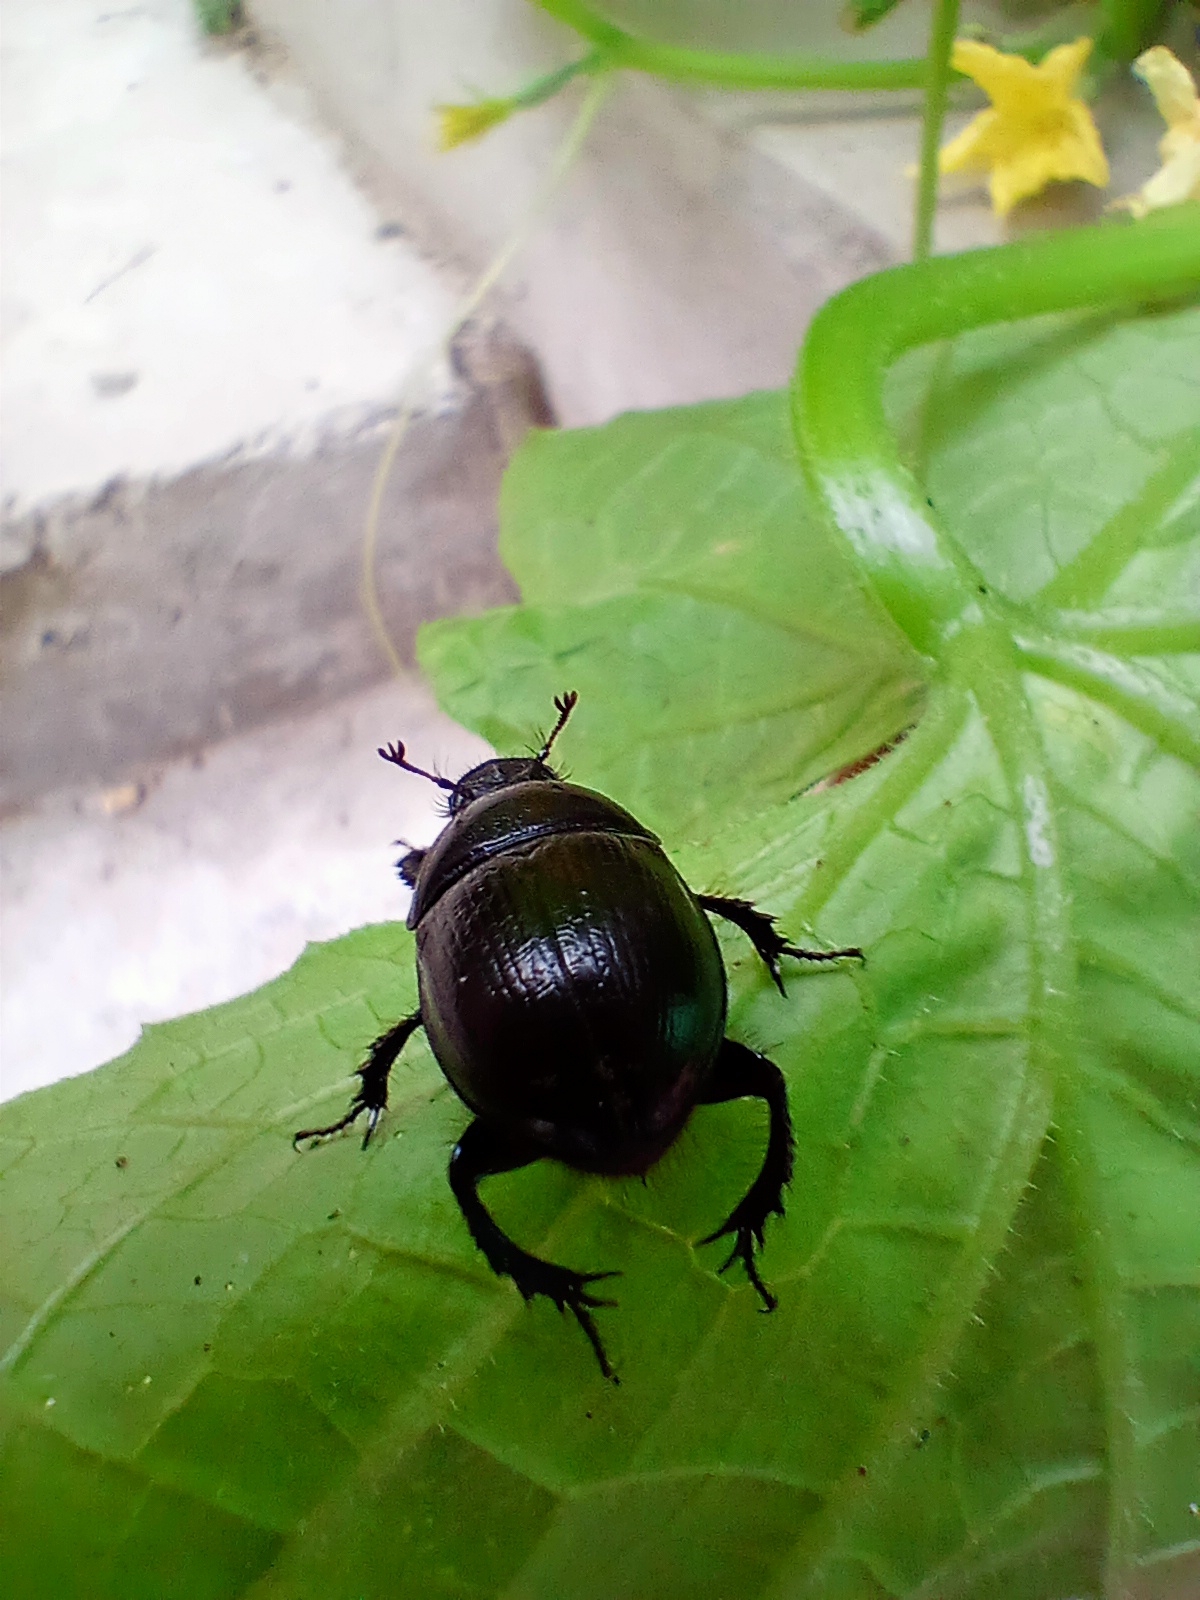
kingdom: Animalia
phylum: Arthropoda
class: Insecta
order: Coleoptera
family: Geotrupidae
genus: Anoplotrupes
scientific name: Anoplotrupes stercorosus
